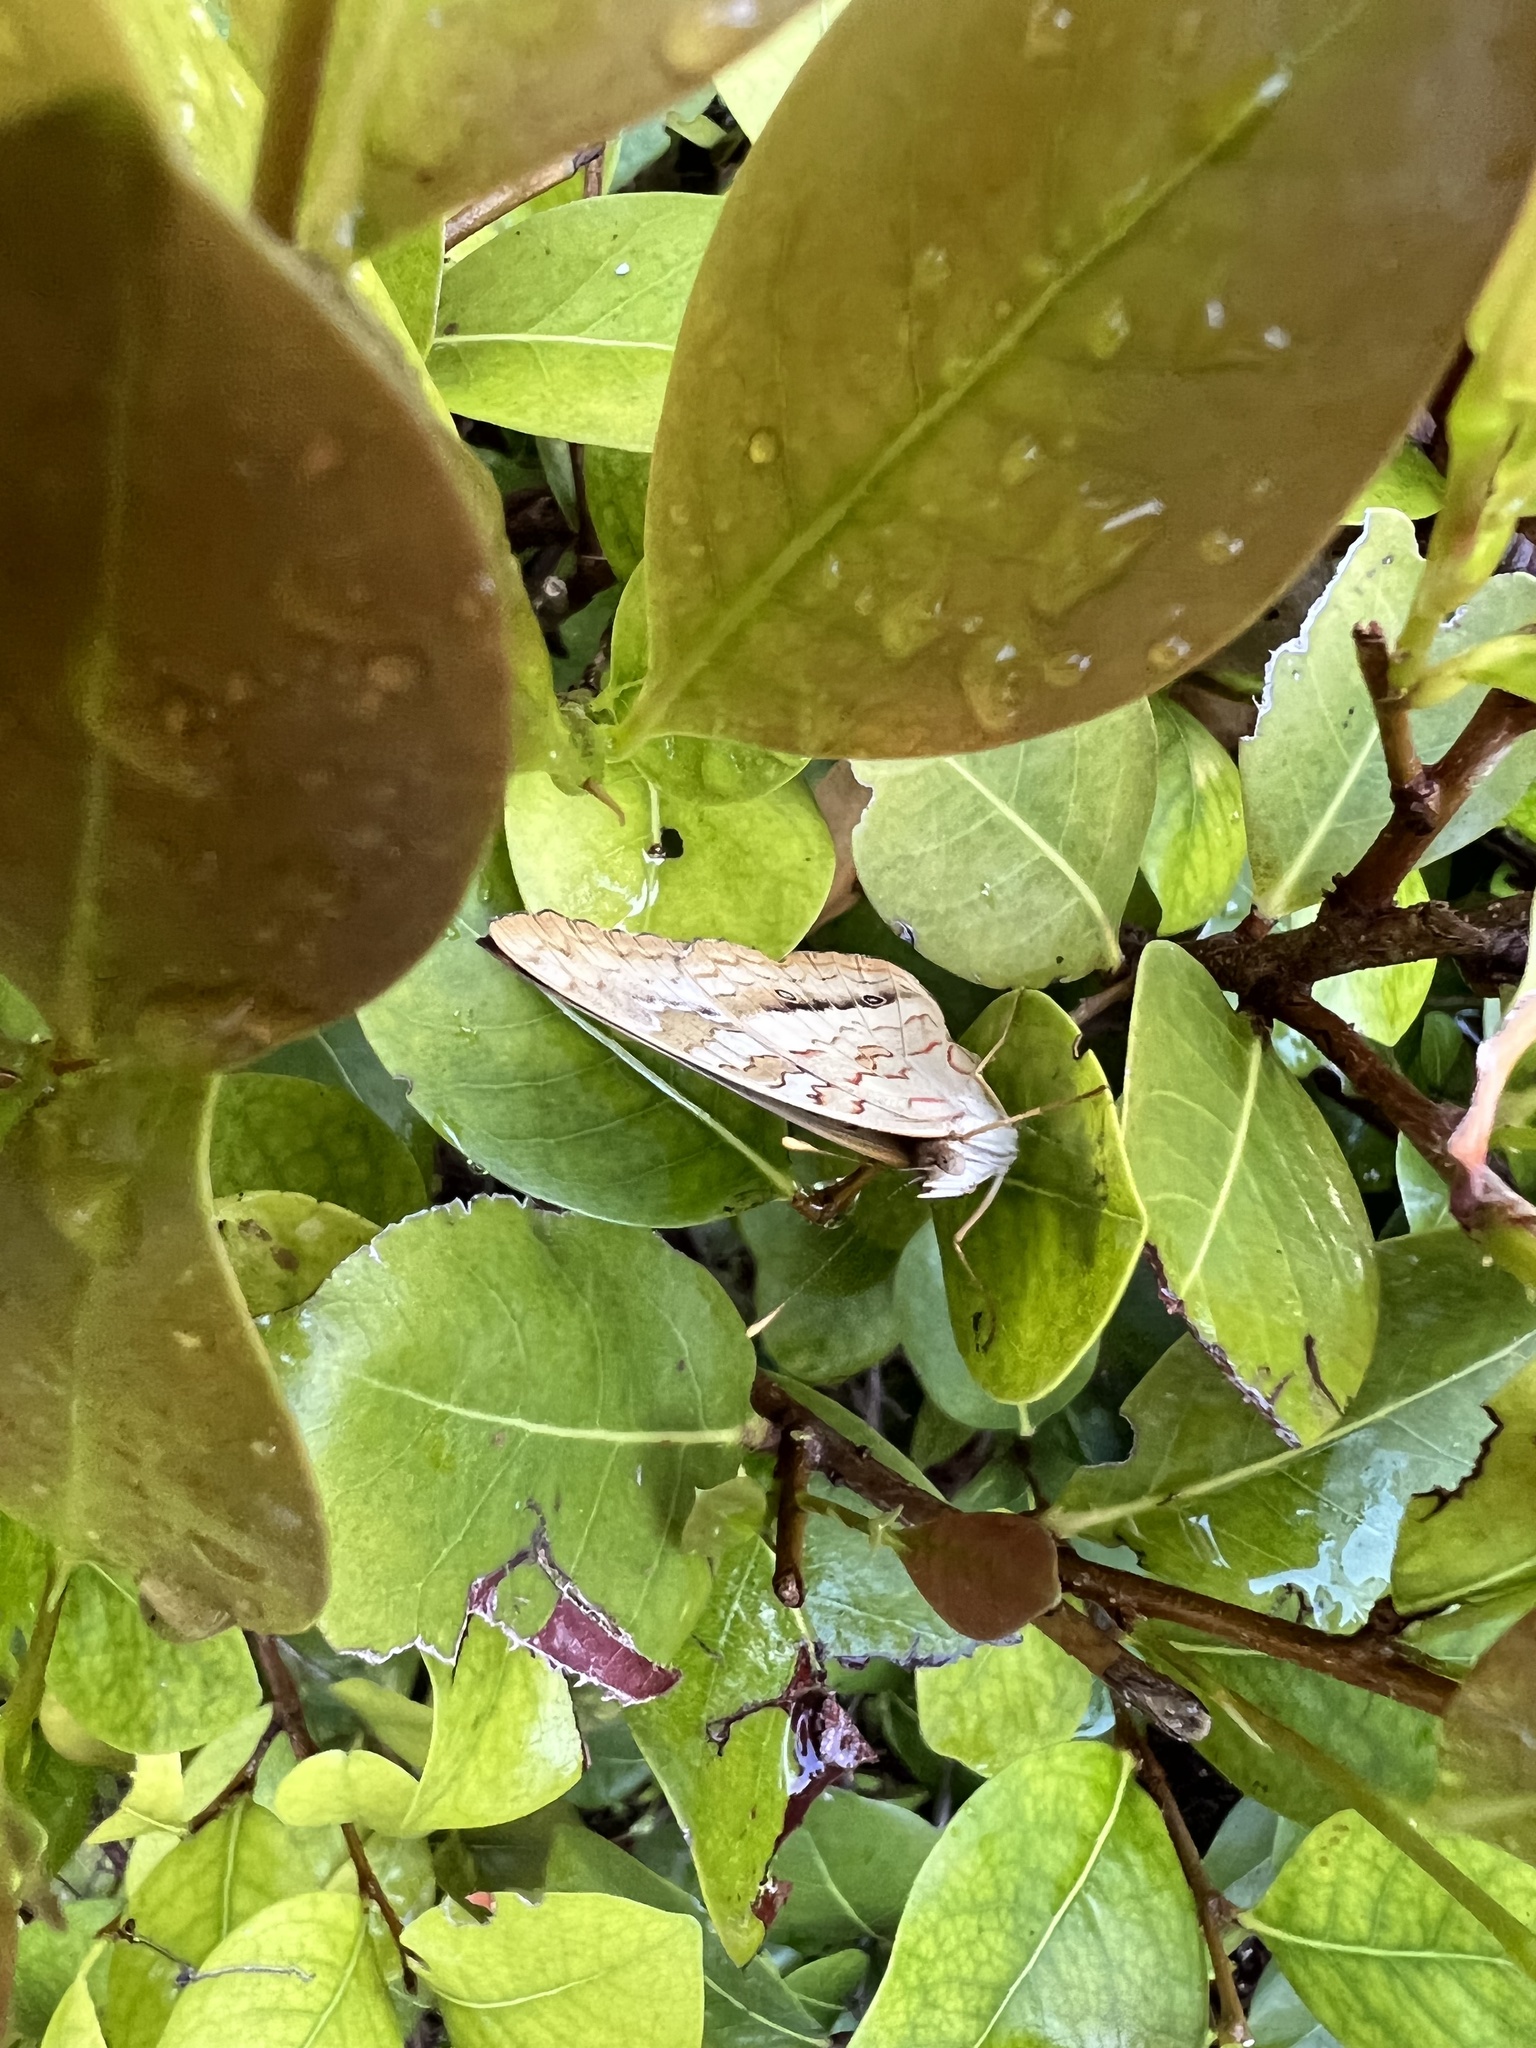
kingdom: Animalia
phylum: Arthropoda
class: Insecta
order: Lepidoptera
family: Nymphalidae
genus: Anartia
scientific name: Anartia jatrophae
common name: White peacock
